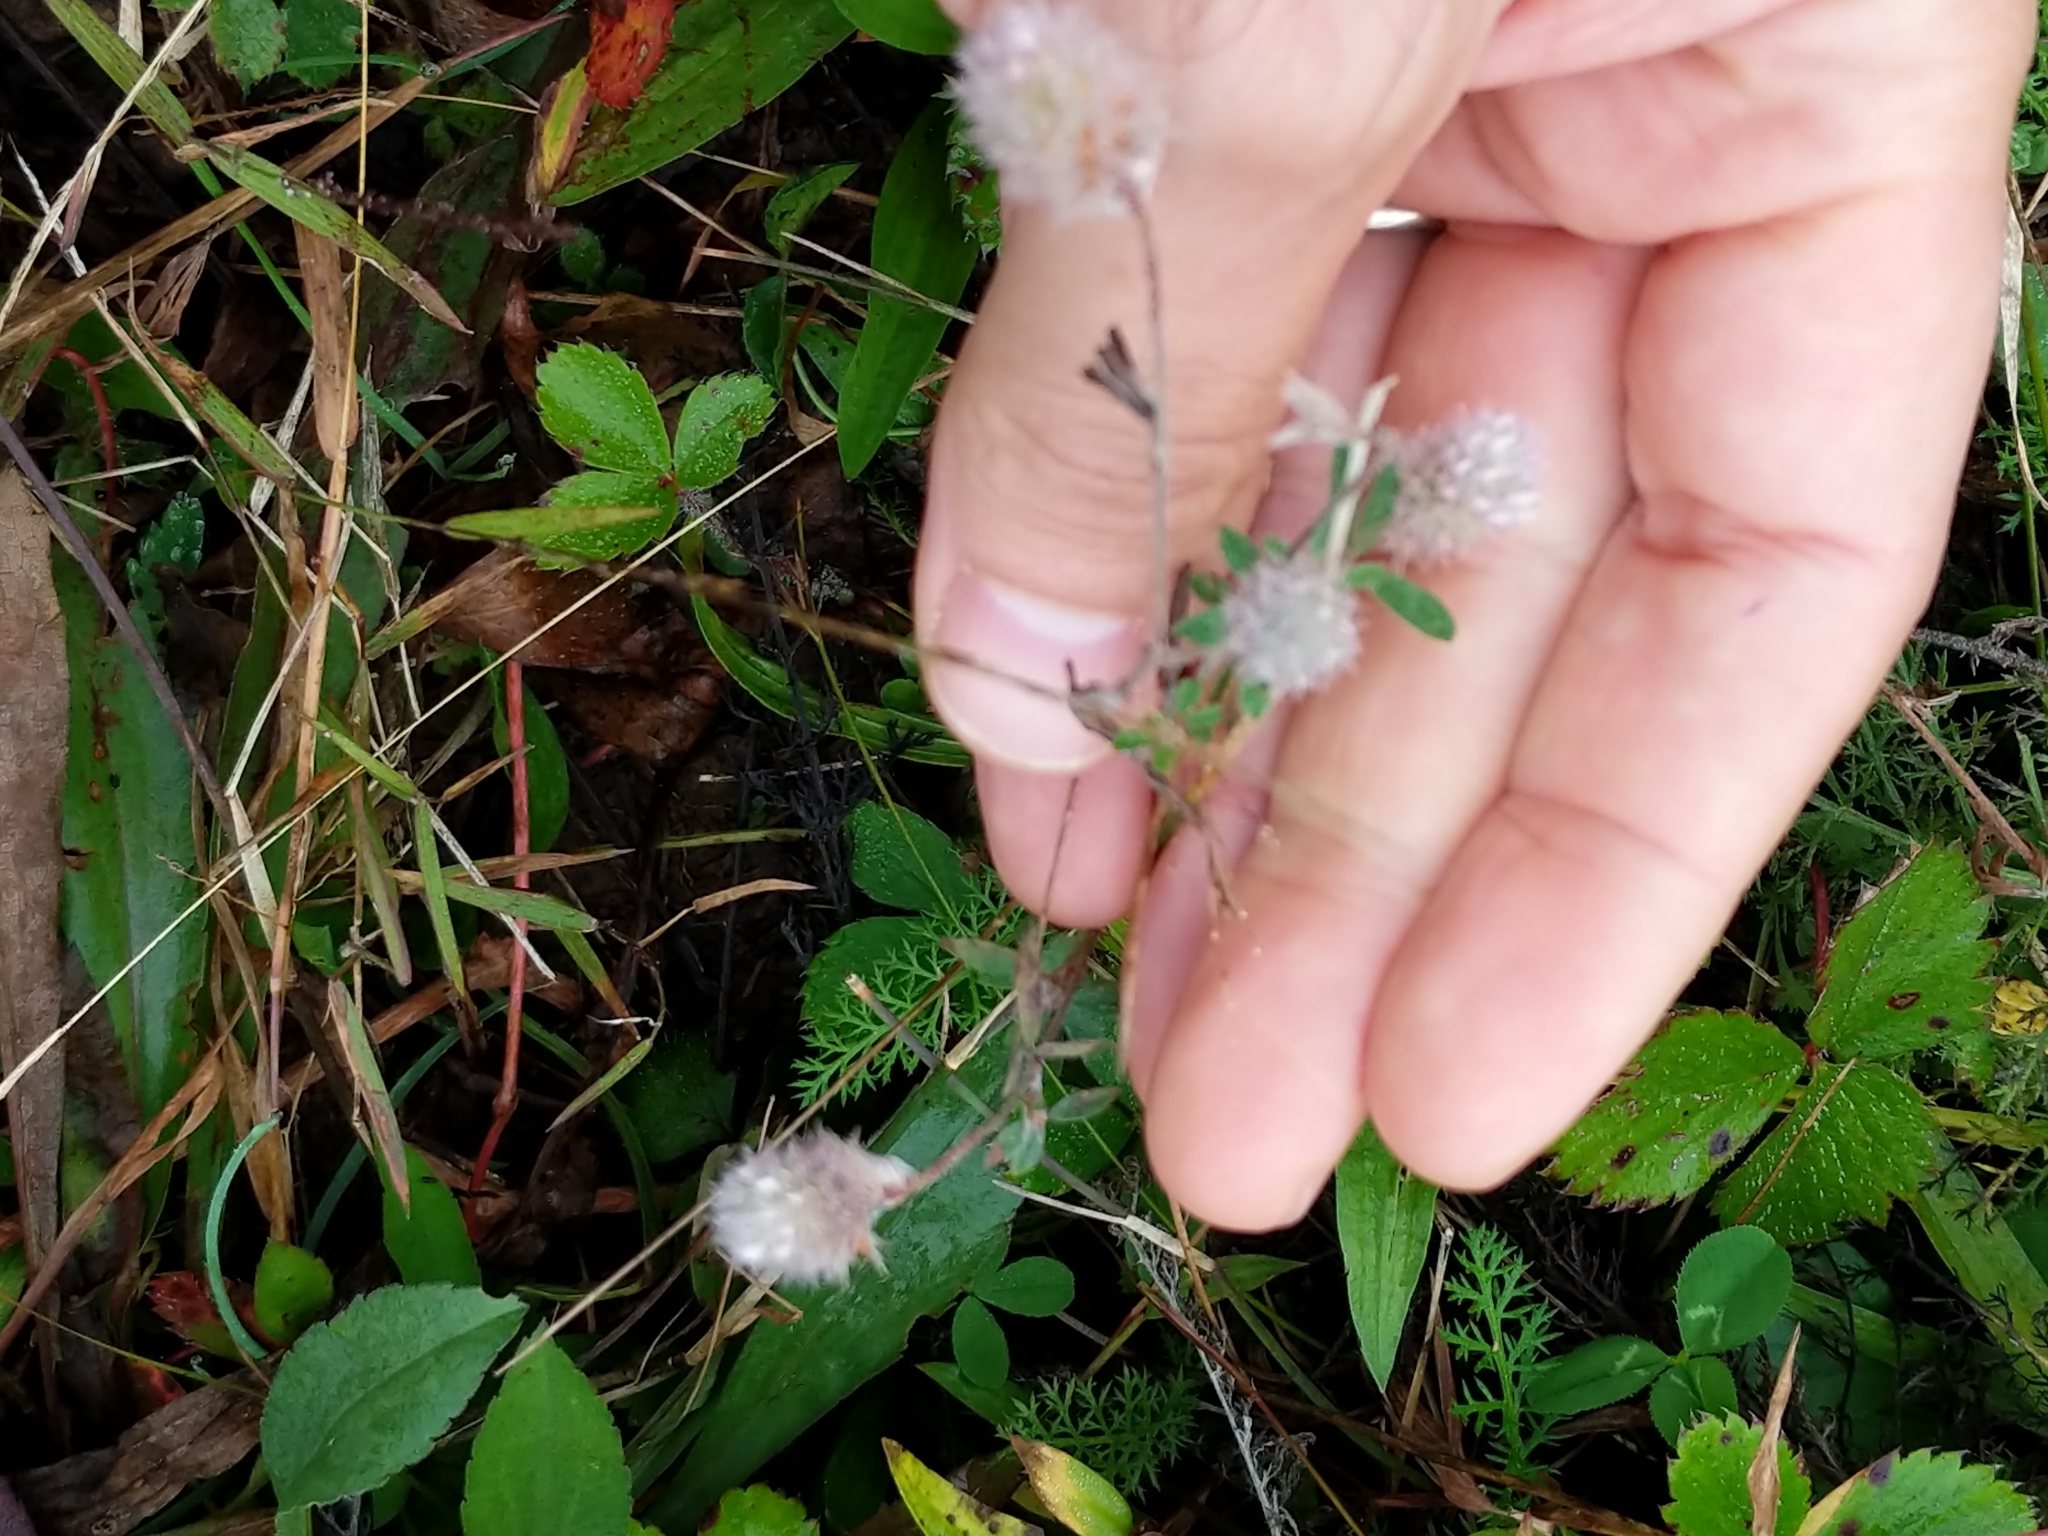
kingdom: Plantae
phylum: Tracheophyta
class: Magnoliopsida
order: Fabales
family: Fabaceae
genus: Trifolium
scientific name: Trifolium arvense
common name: Hare's-foot clover
